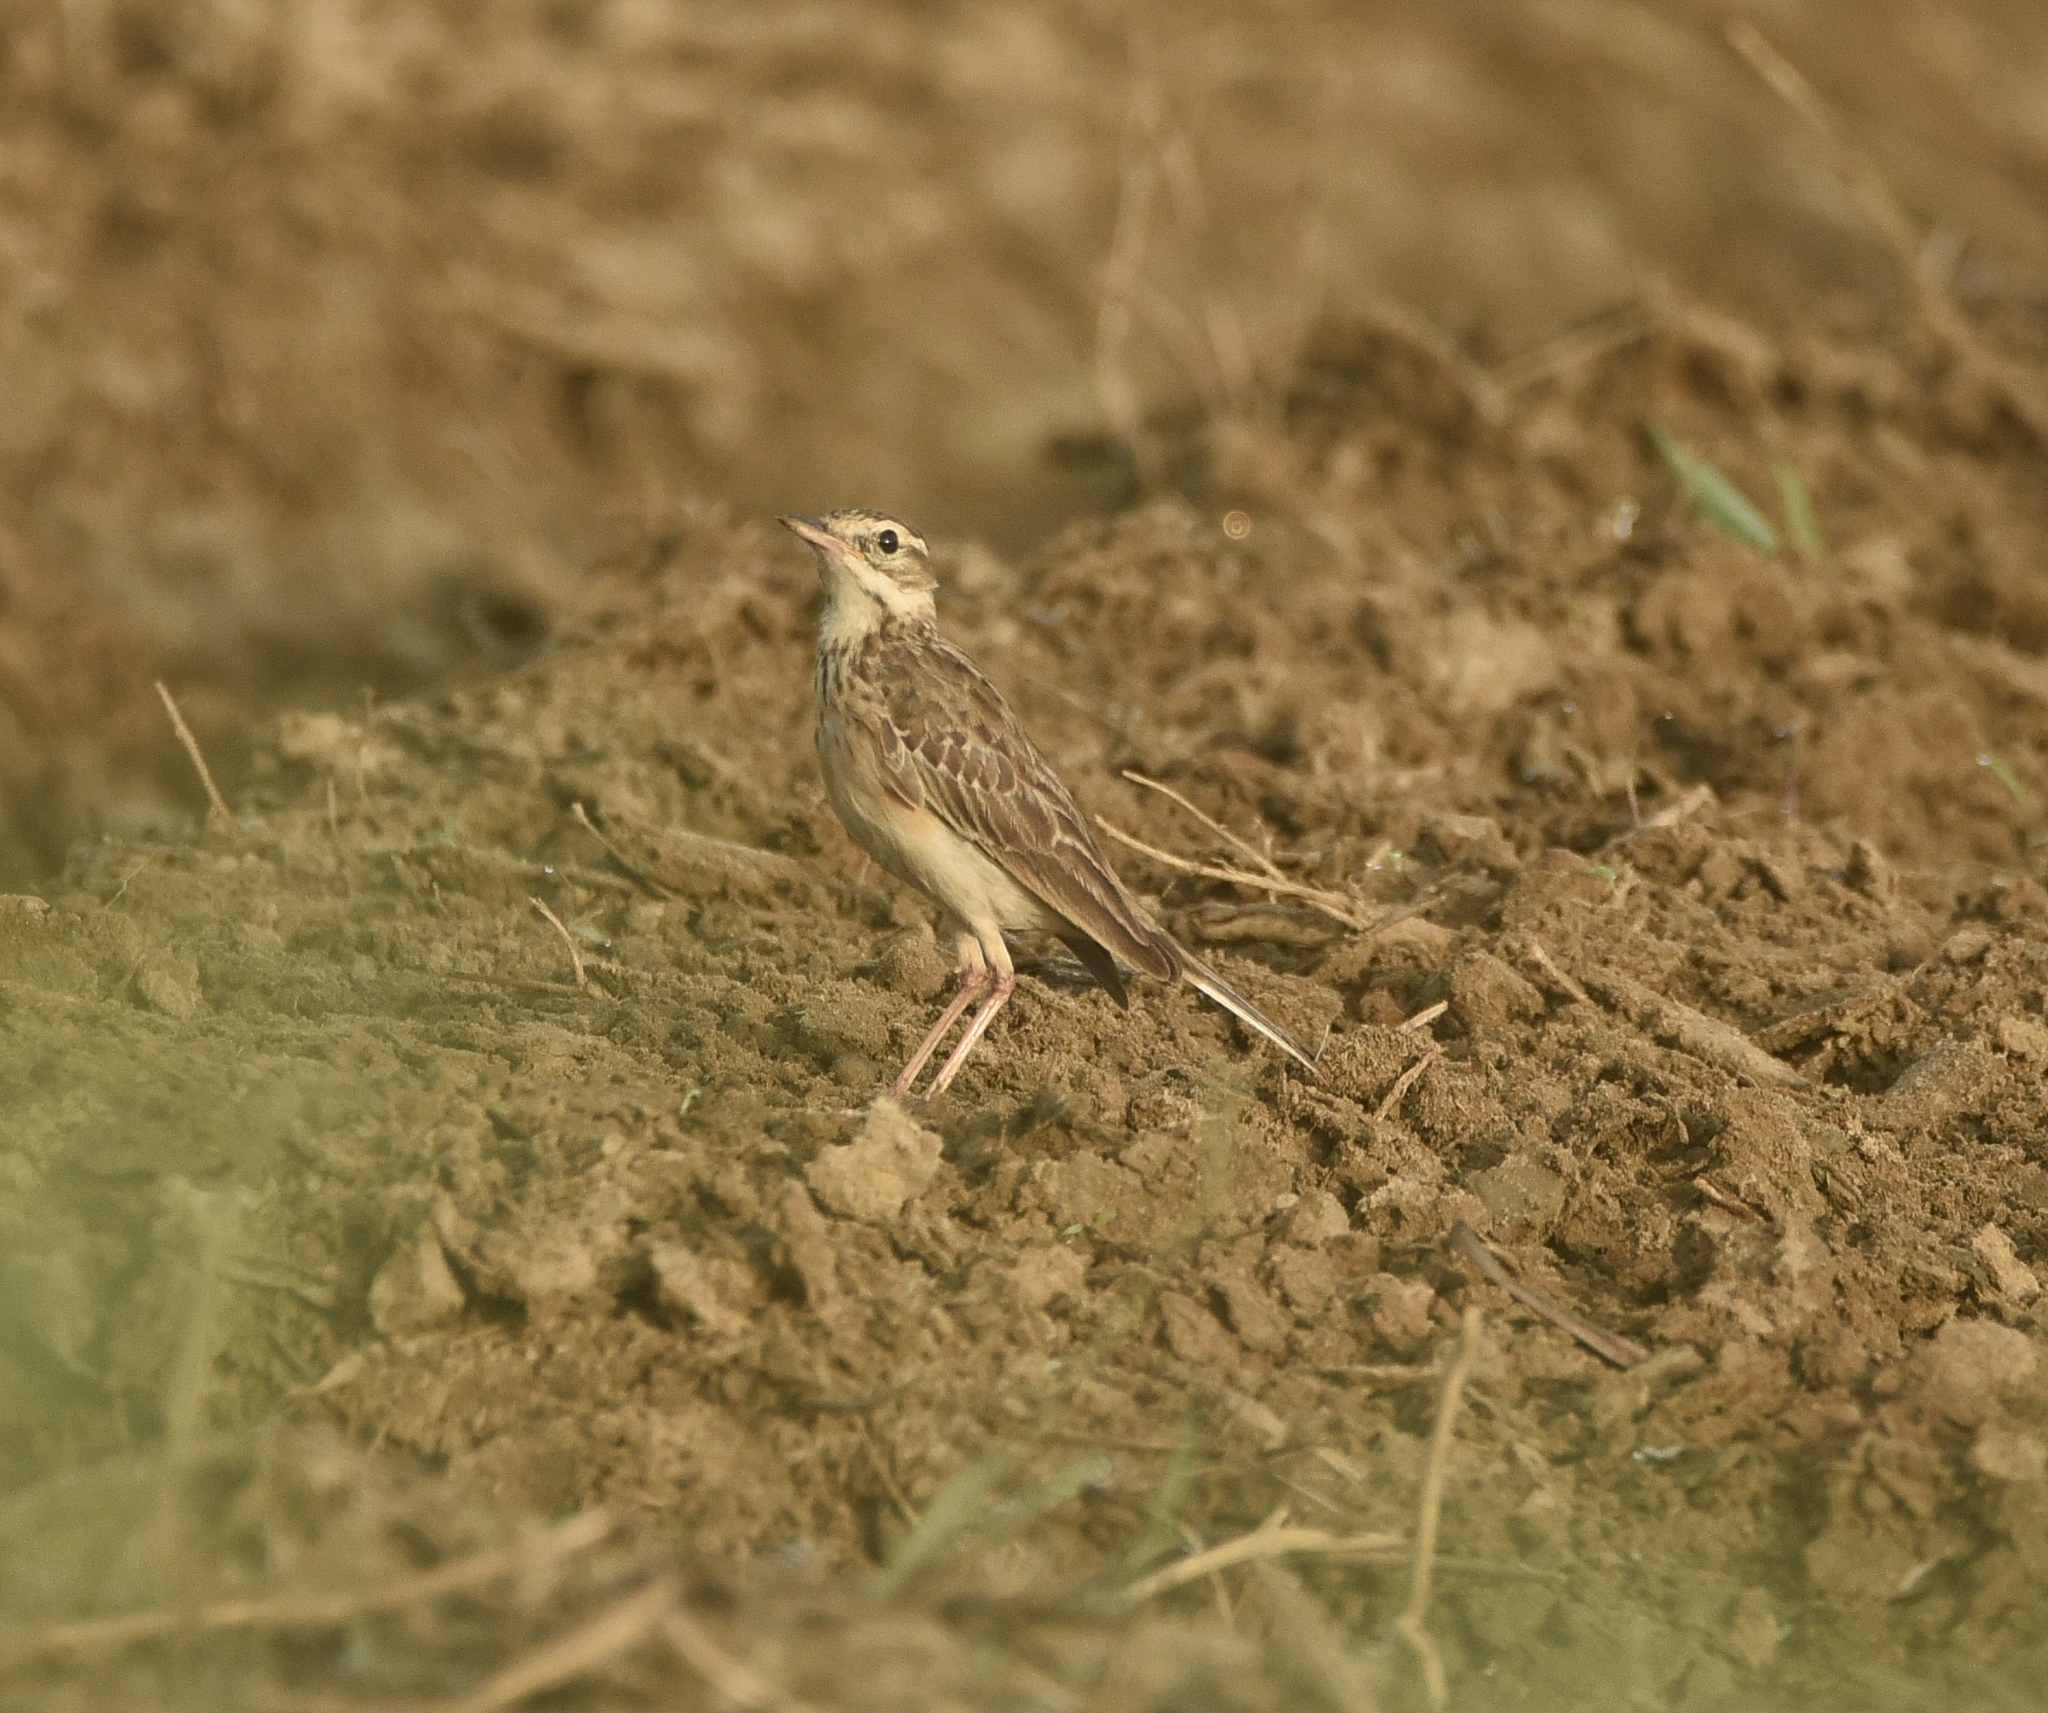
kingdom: Animalia
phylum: Chordata
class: Aves
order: Passeriformes
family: Motacillidae
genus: Anthus
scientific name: Anthus rufulus
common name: Paddyfield pipit
